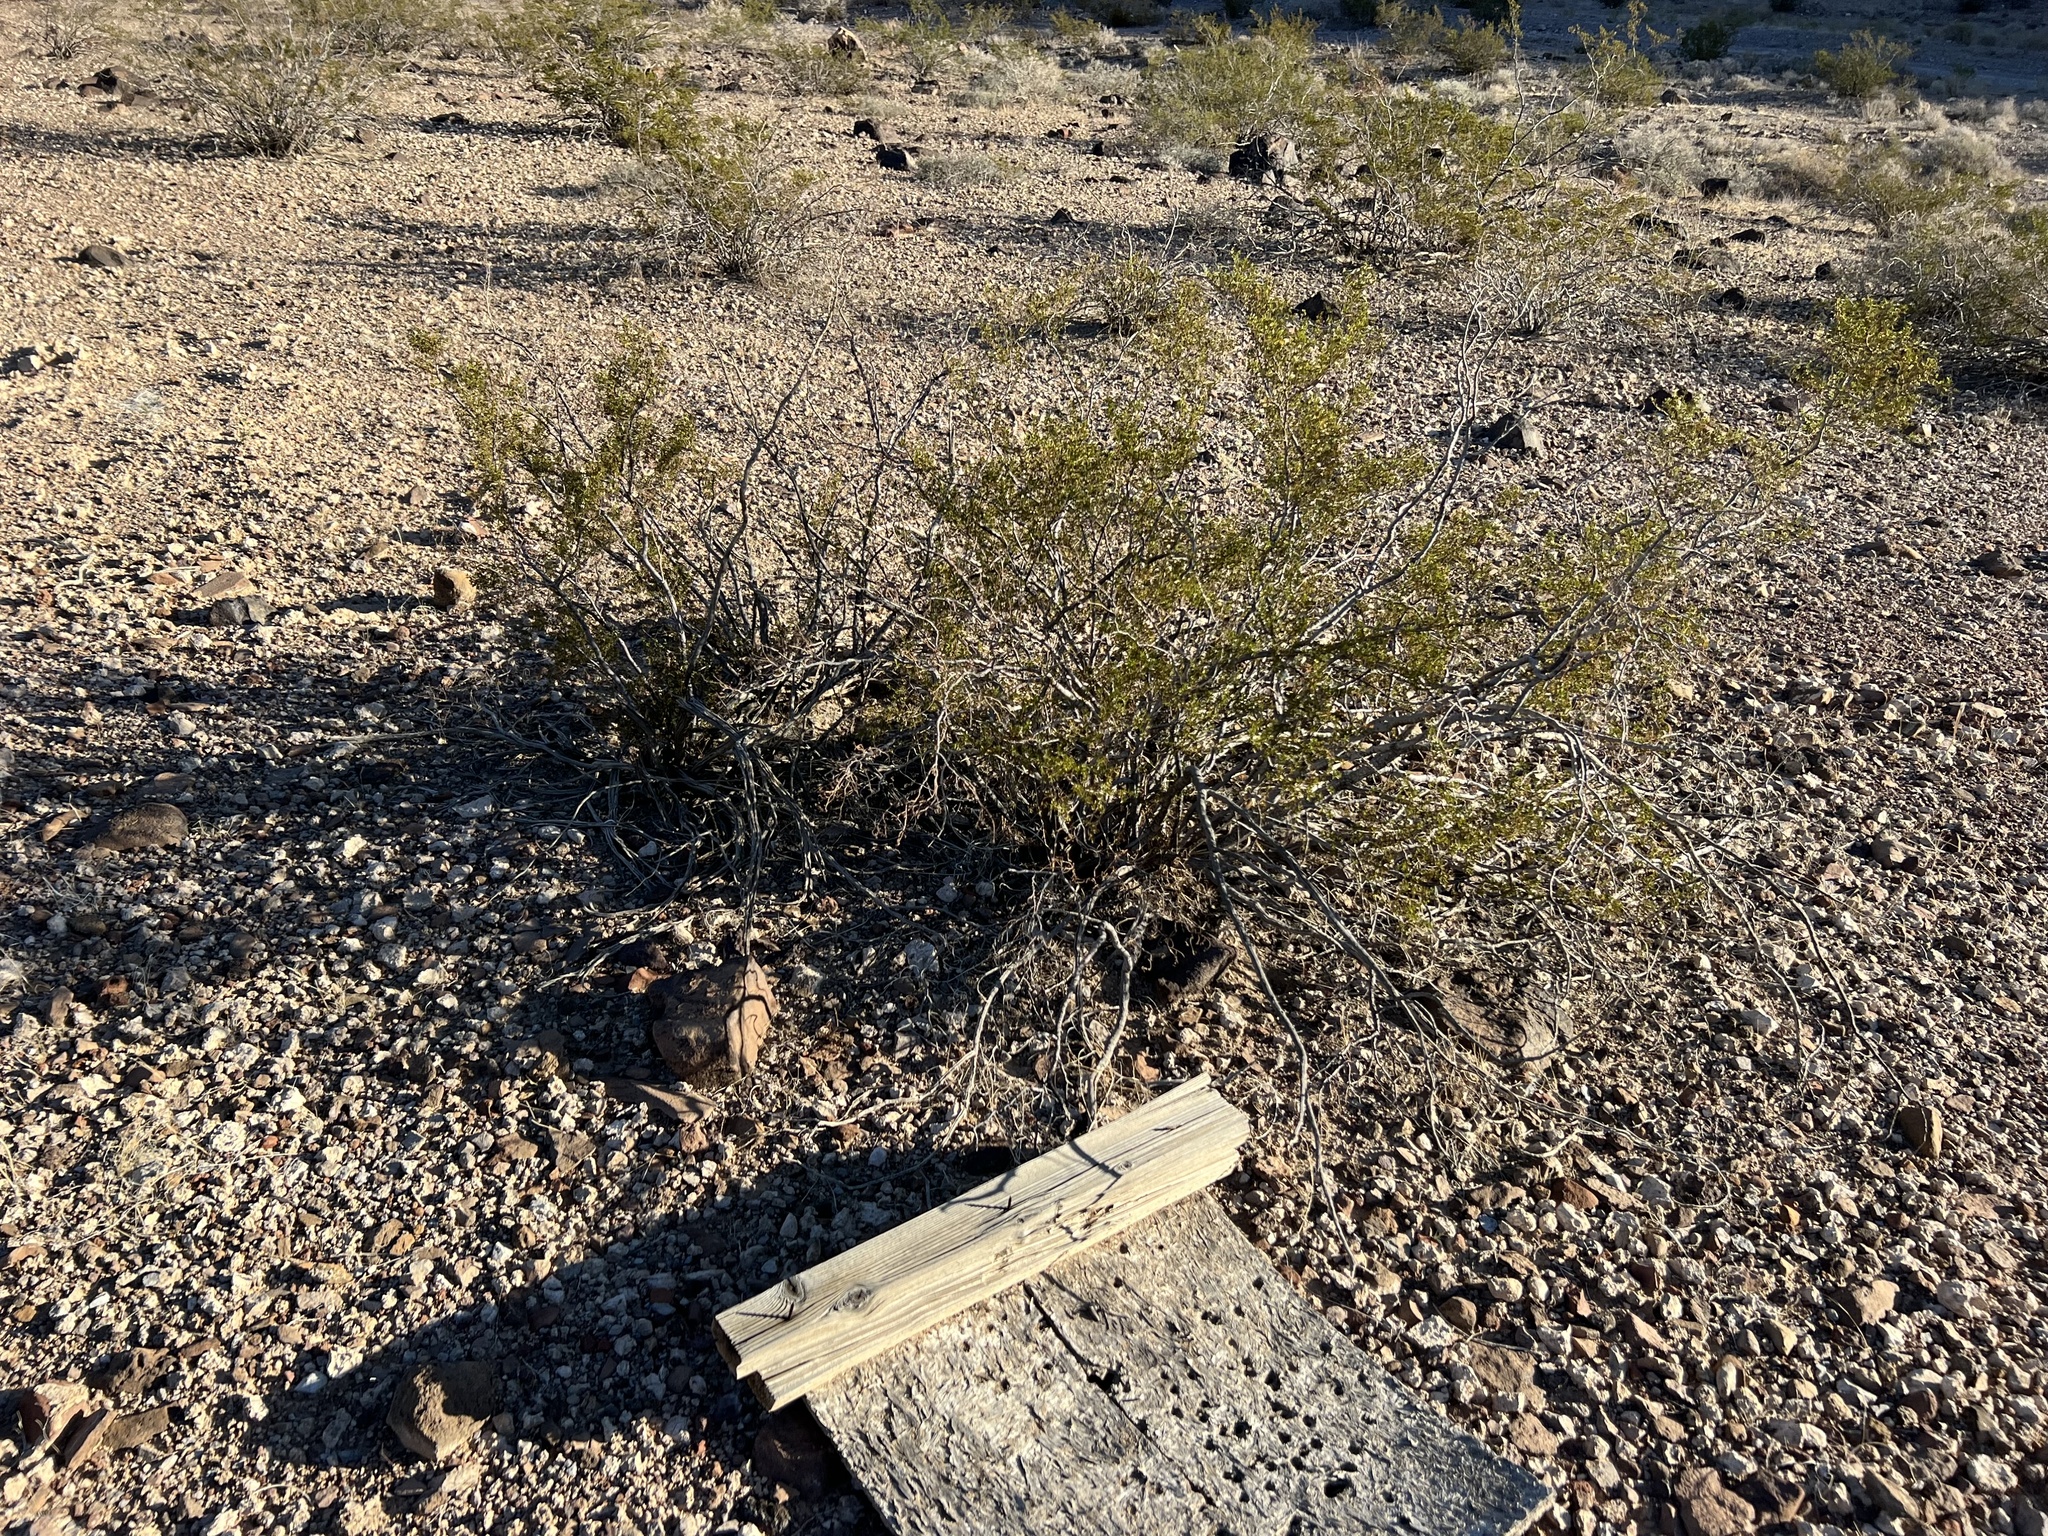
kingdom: Plantae
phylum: Tracheophyta
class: Magnoliopsida
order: Zygophyllales
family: Zygophyllaceae
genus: Larrea
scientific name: Larrea tridentata
